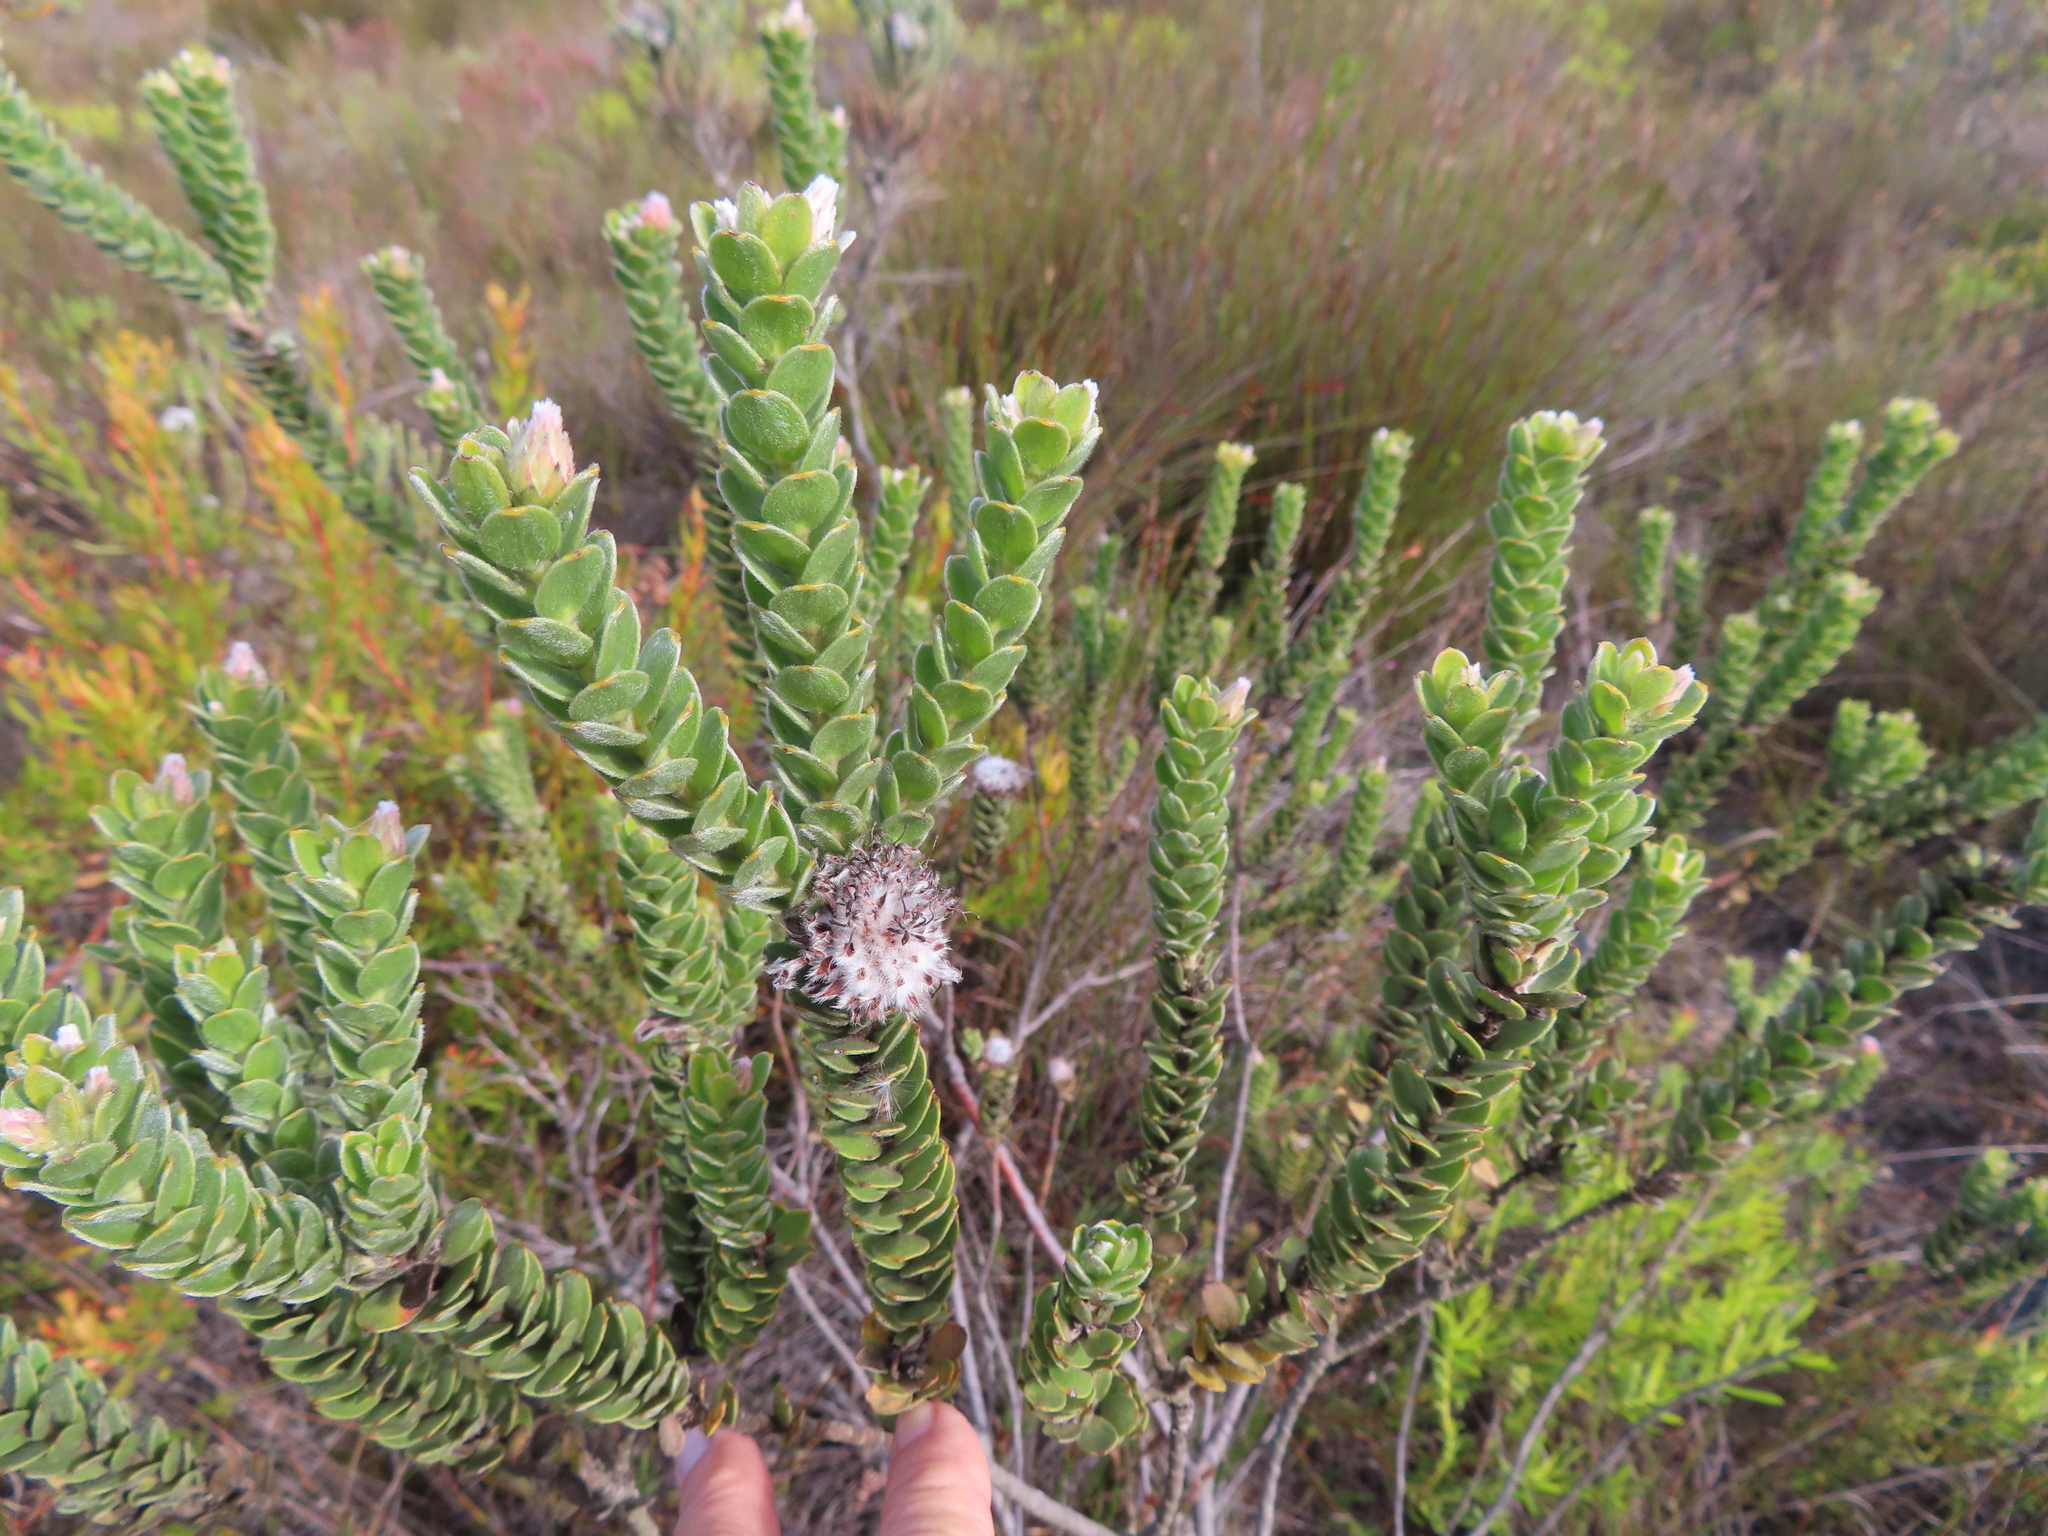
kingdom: Plantae
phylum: Tracheophyta
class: Magnoliopsida
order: Proteales
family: Proteaceae
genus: Leucospermum
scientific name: Leucospermum truncatulum
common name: Oval-leaf pincushion
